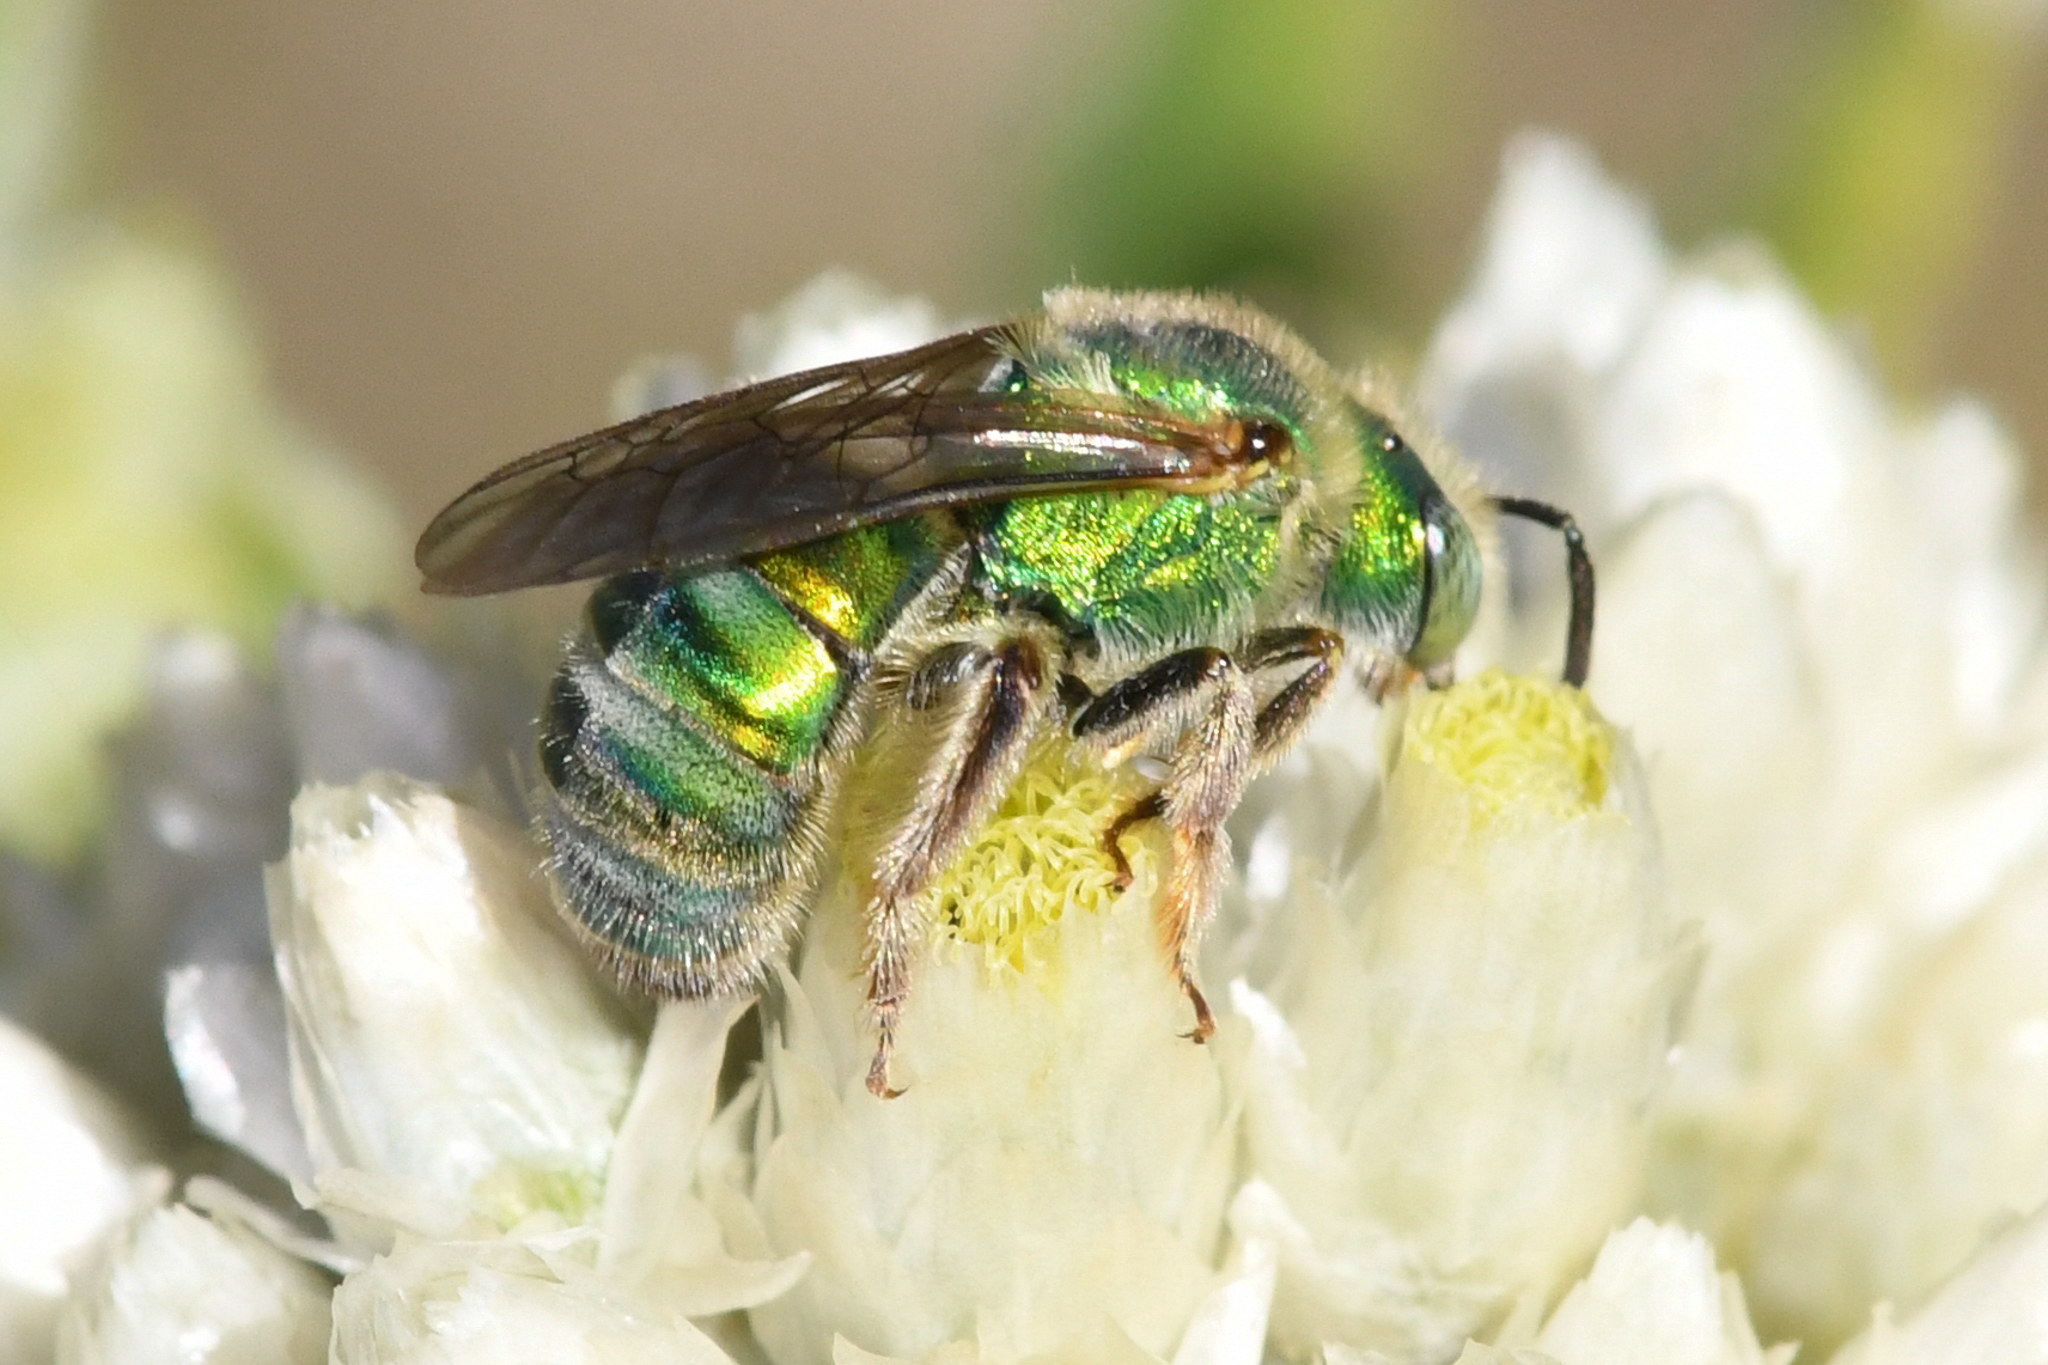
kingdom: Animalia
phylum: Arthropoda
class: Insecta
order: Hymenoptera
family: Halictidae
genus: Agapostemon
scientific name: Agapostemon texanus
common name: Texas striped sweat bee
